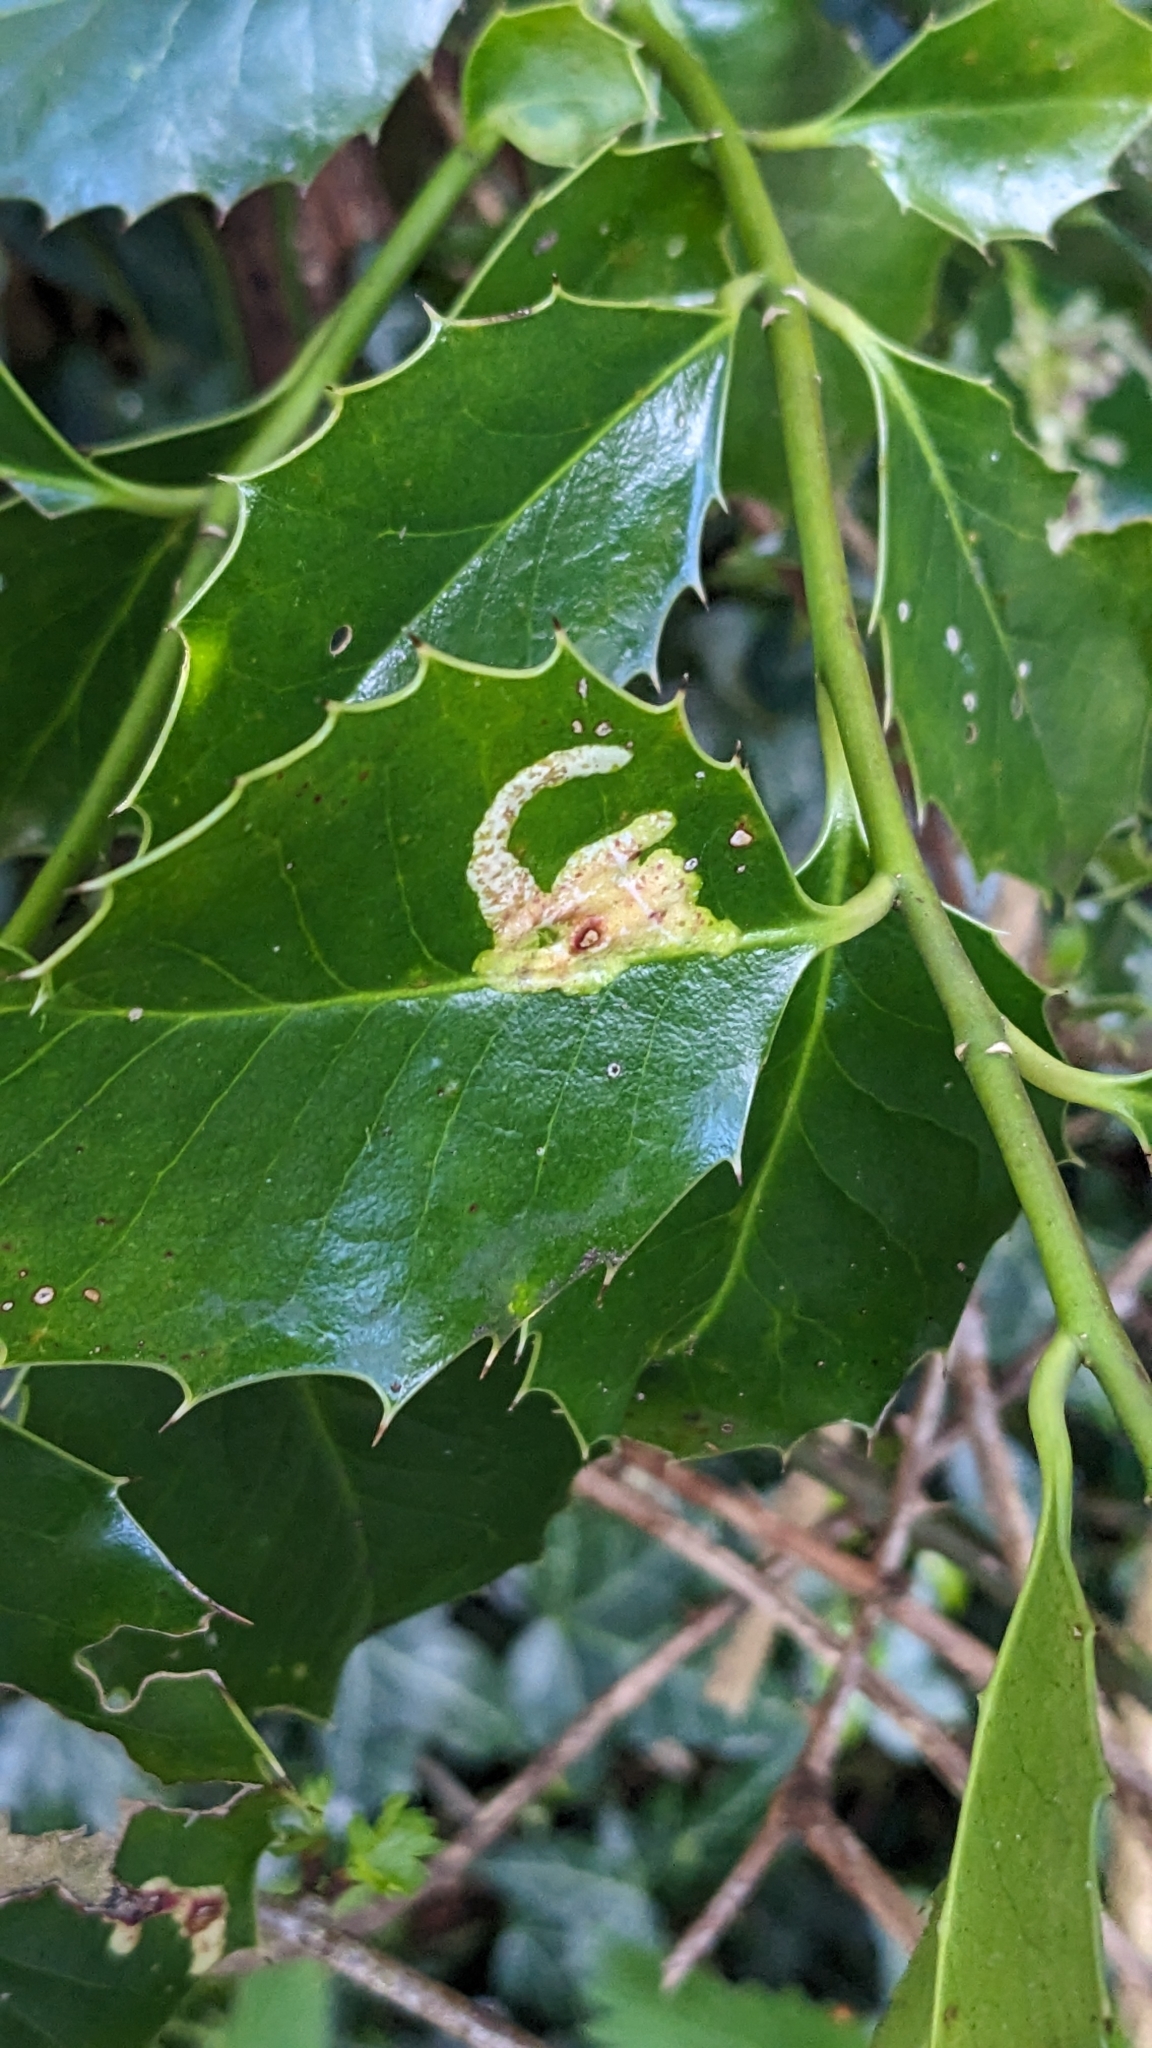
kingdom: Animalia
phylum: Arthropoda
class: Insecta
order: Diptera
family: Agromyzidae
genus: Phytomyza
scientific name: Phytomyza ilicis
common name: Holly leafminer
